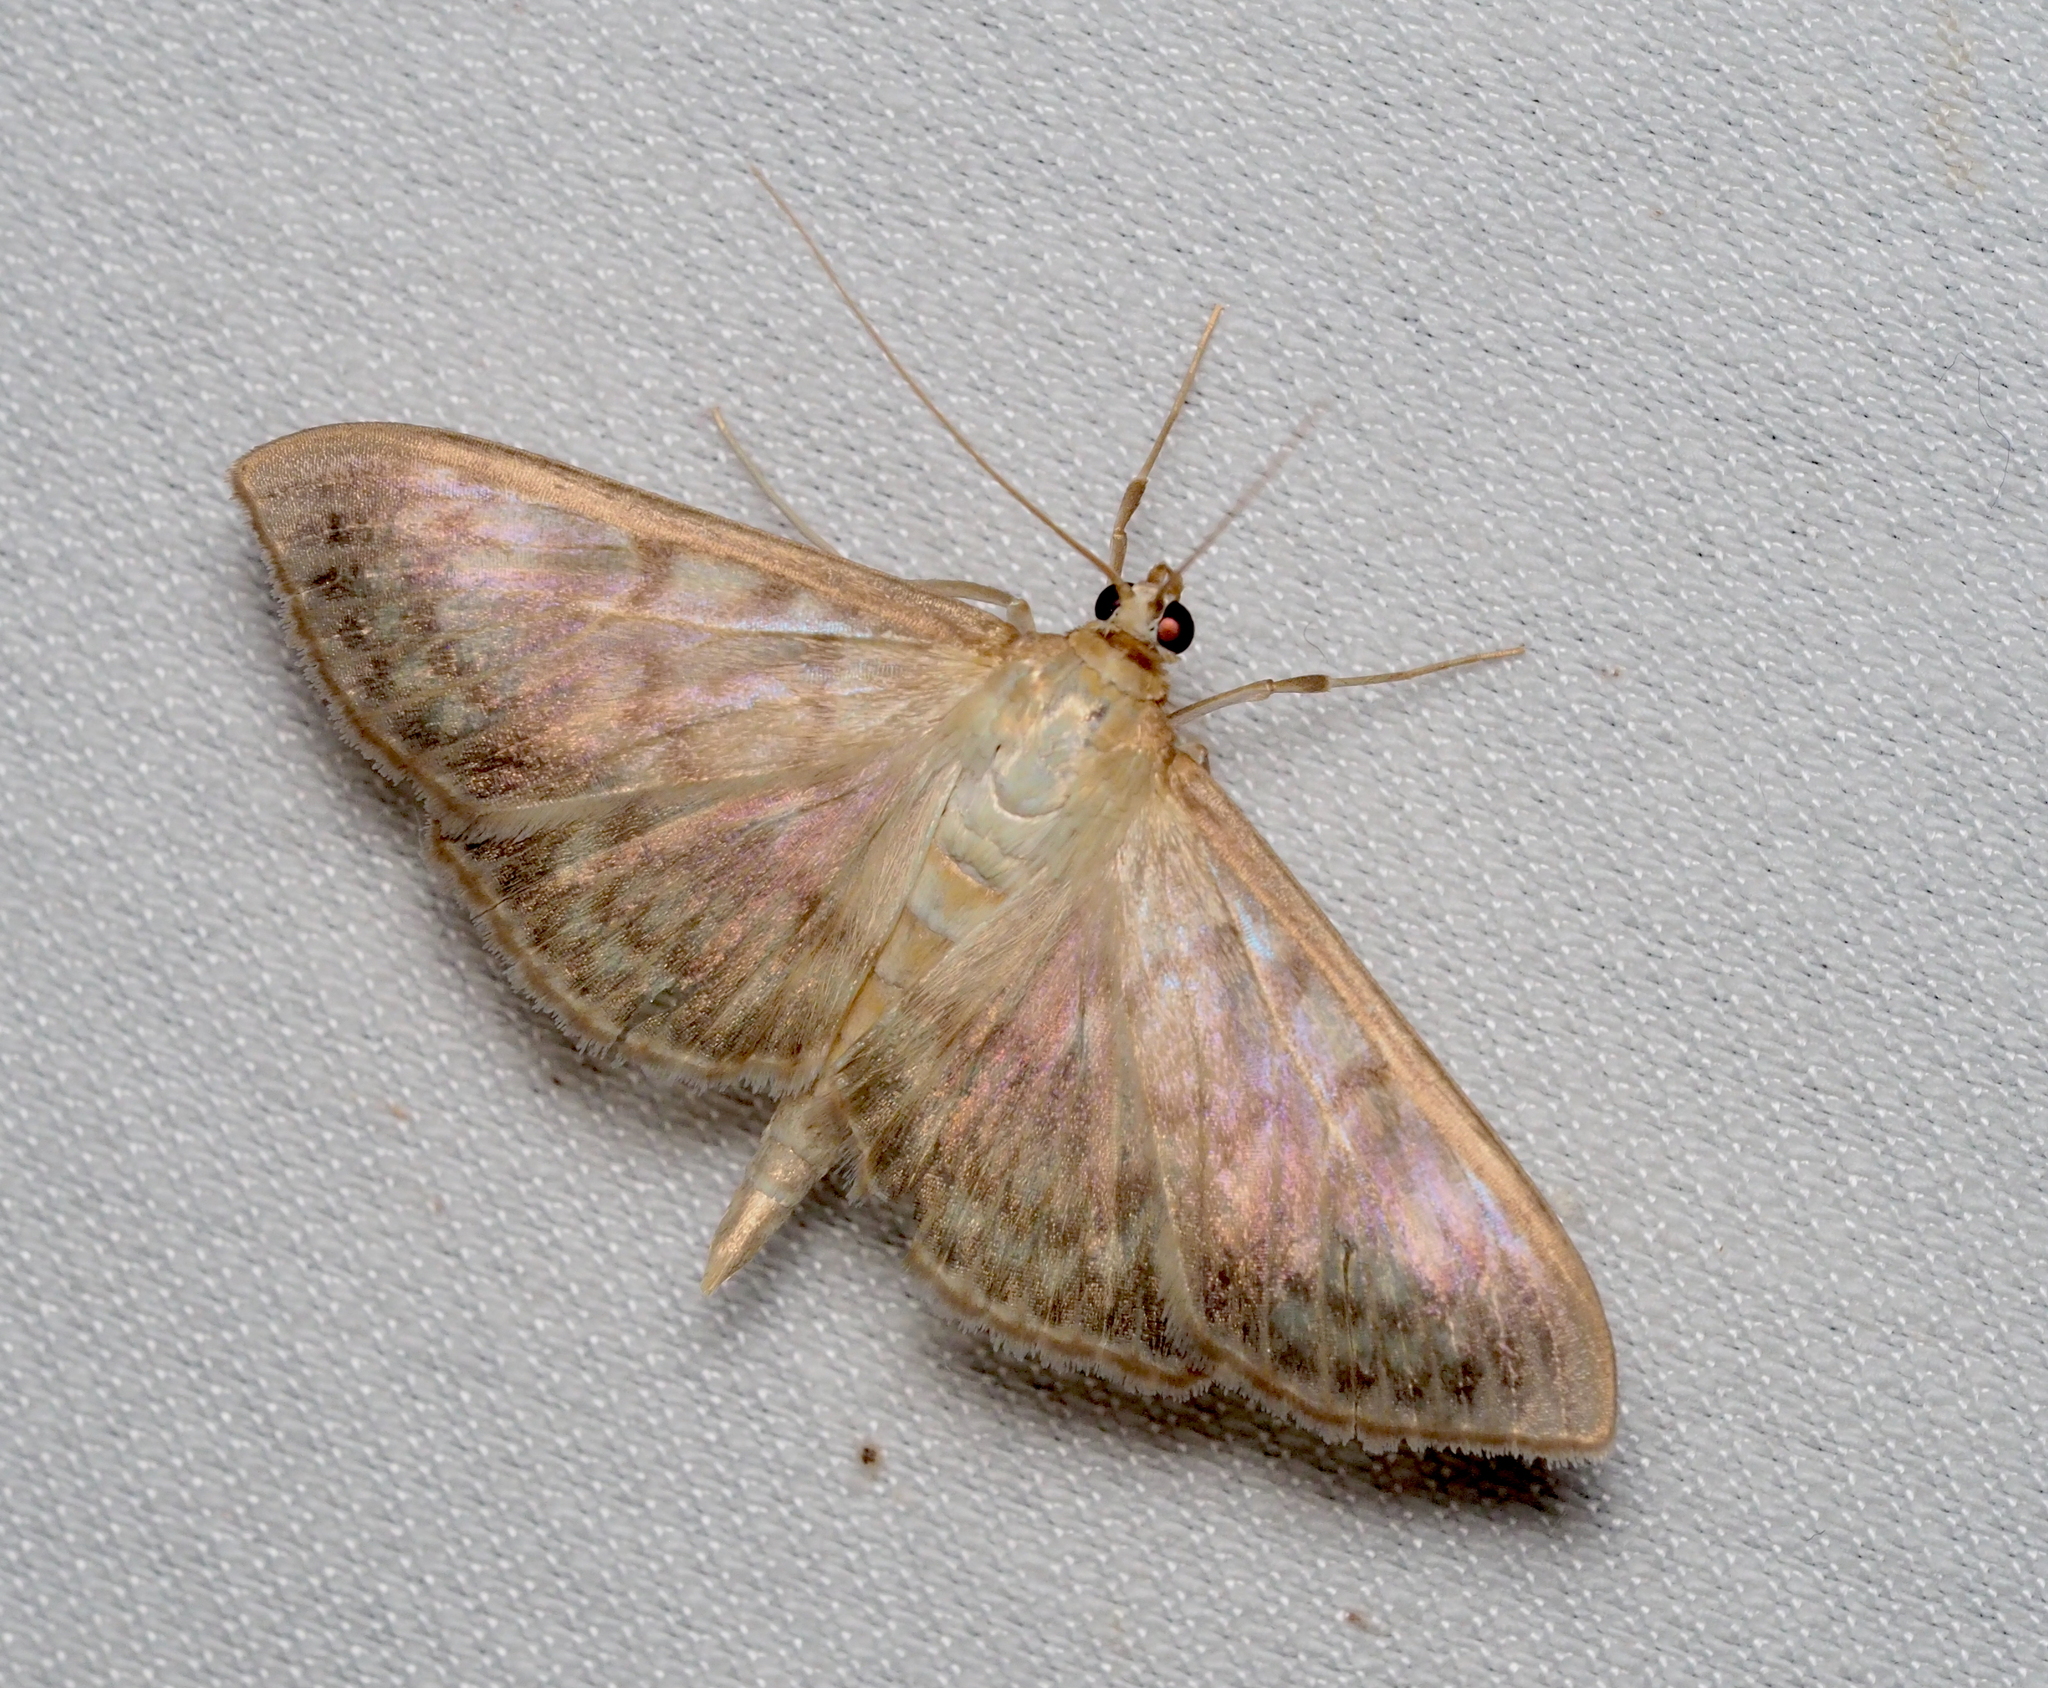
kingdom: Animalia
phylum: Arthropoda
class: Insecta
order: Lepidoptera
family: Crambidae
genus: Patania
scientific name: Patania ruralis
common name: Mother of pearl
